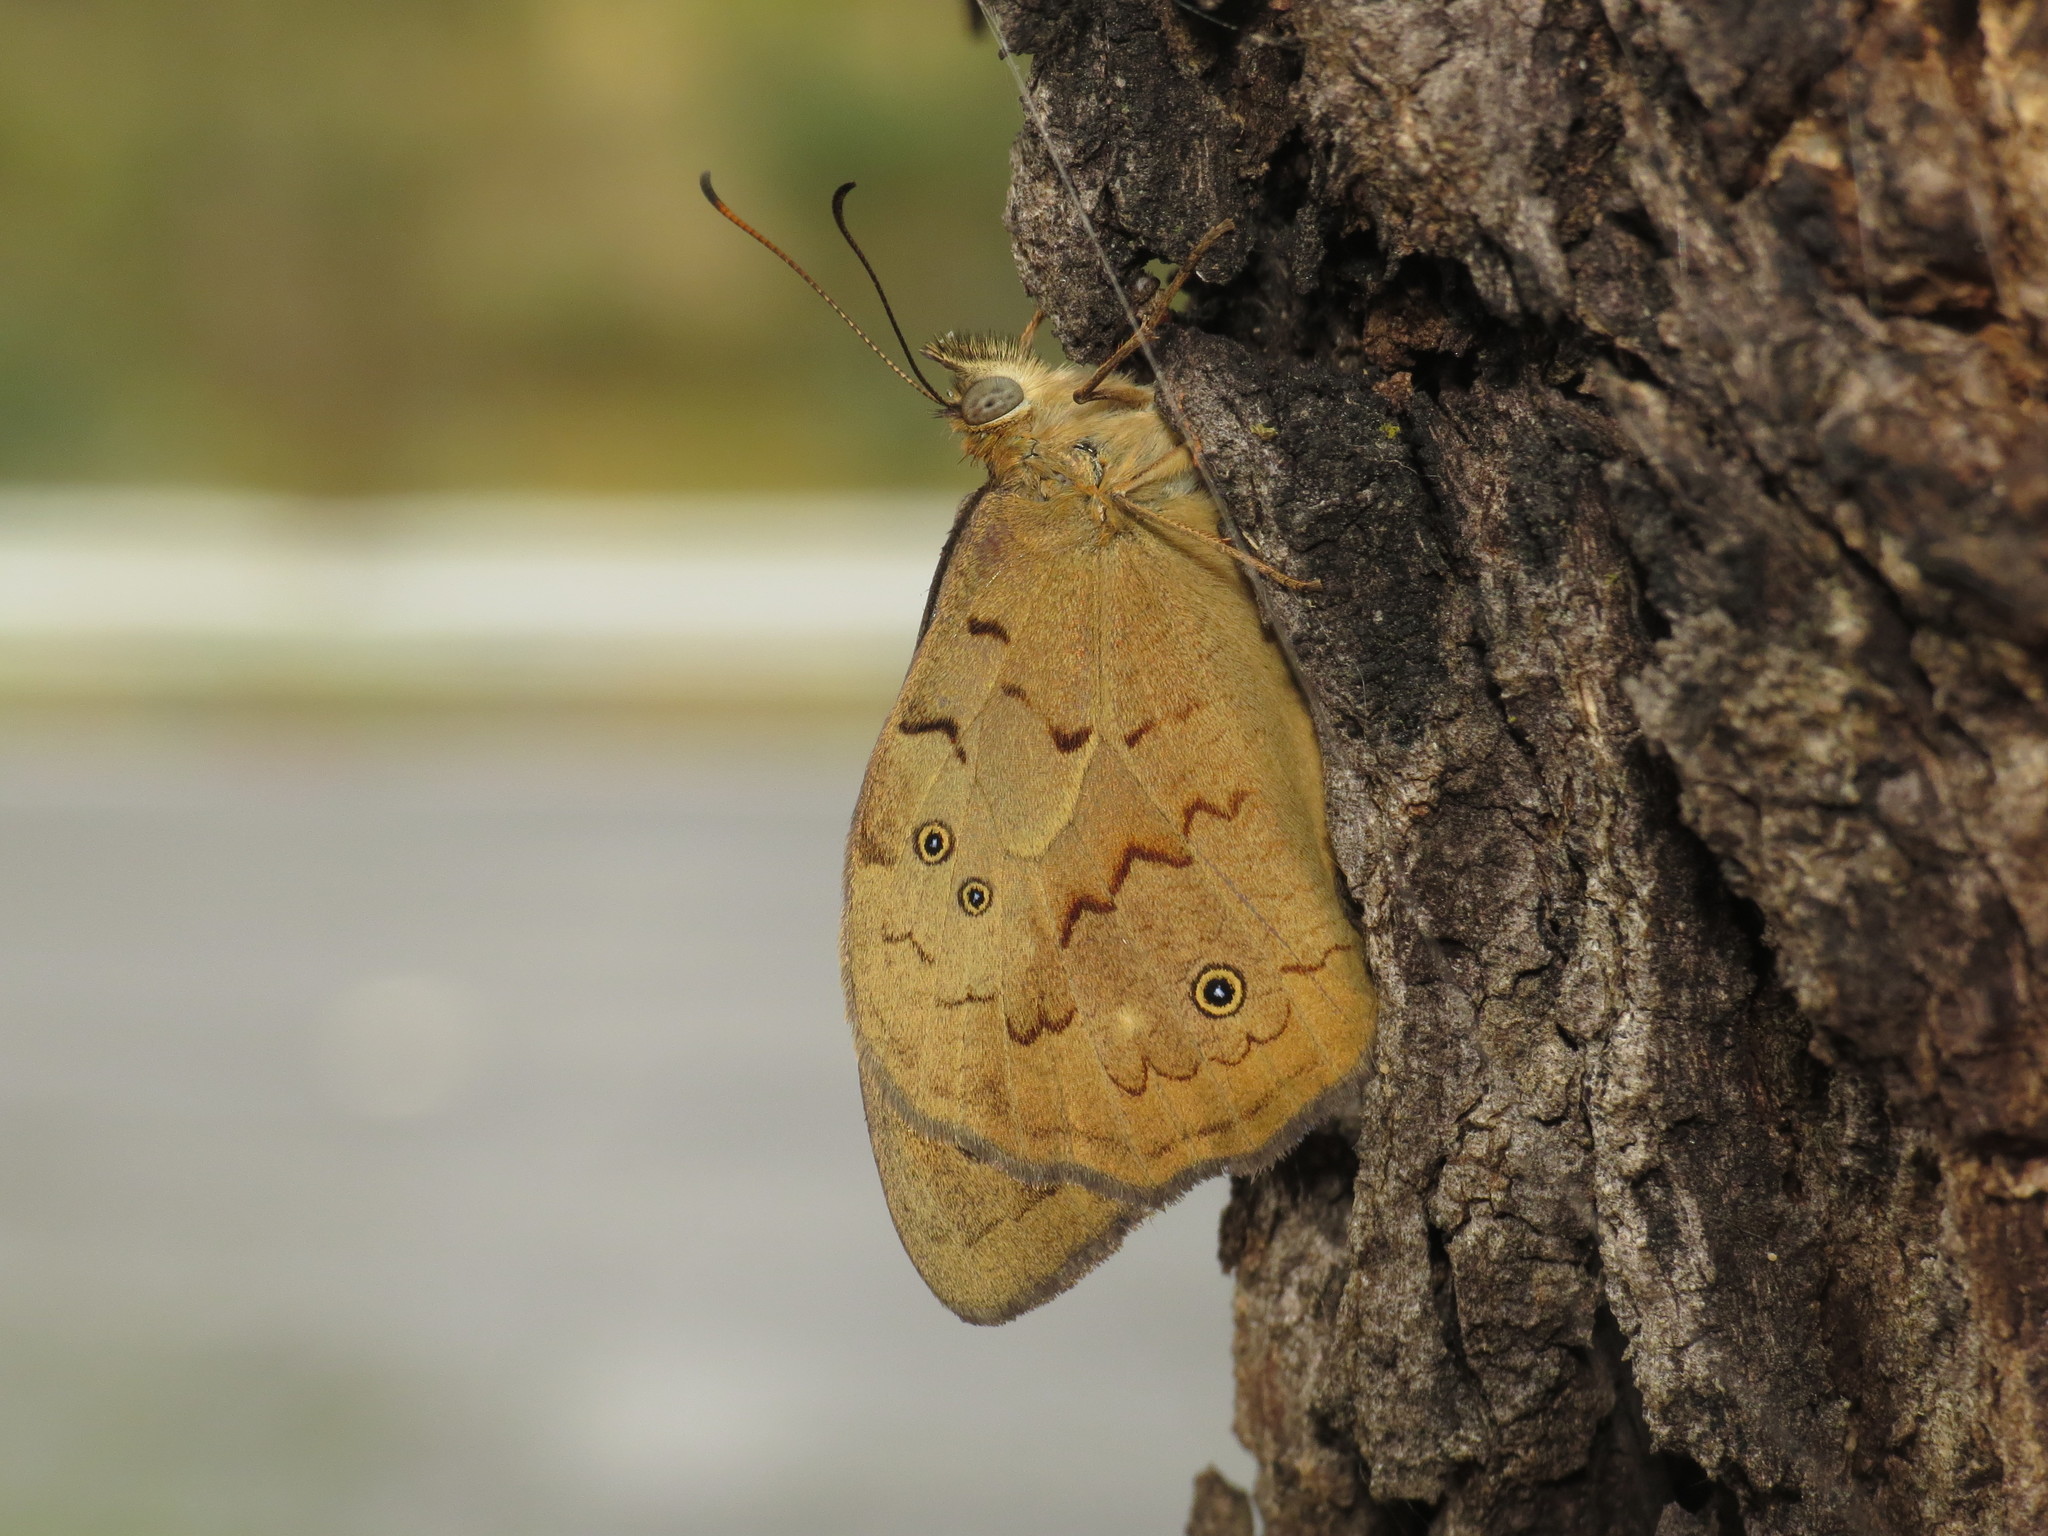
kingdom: Animalia
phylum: Arthropoda
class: Insecta
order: Lepidoptera
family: Nymphalidae
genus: Heteronympha
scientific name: Heteronympha merope
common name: Common brown
